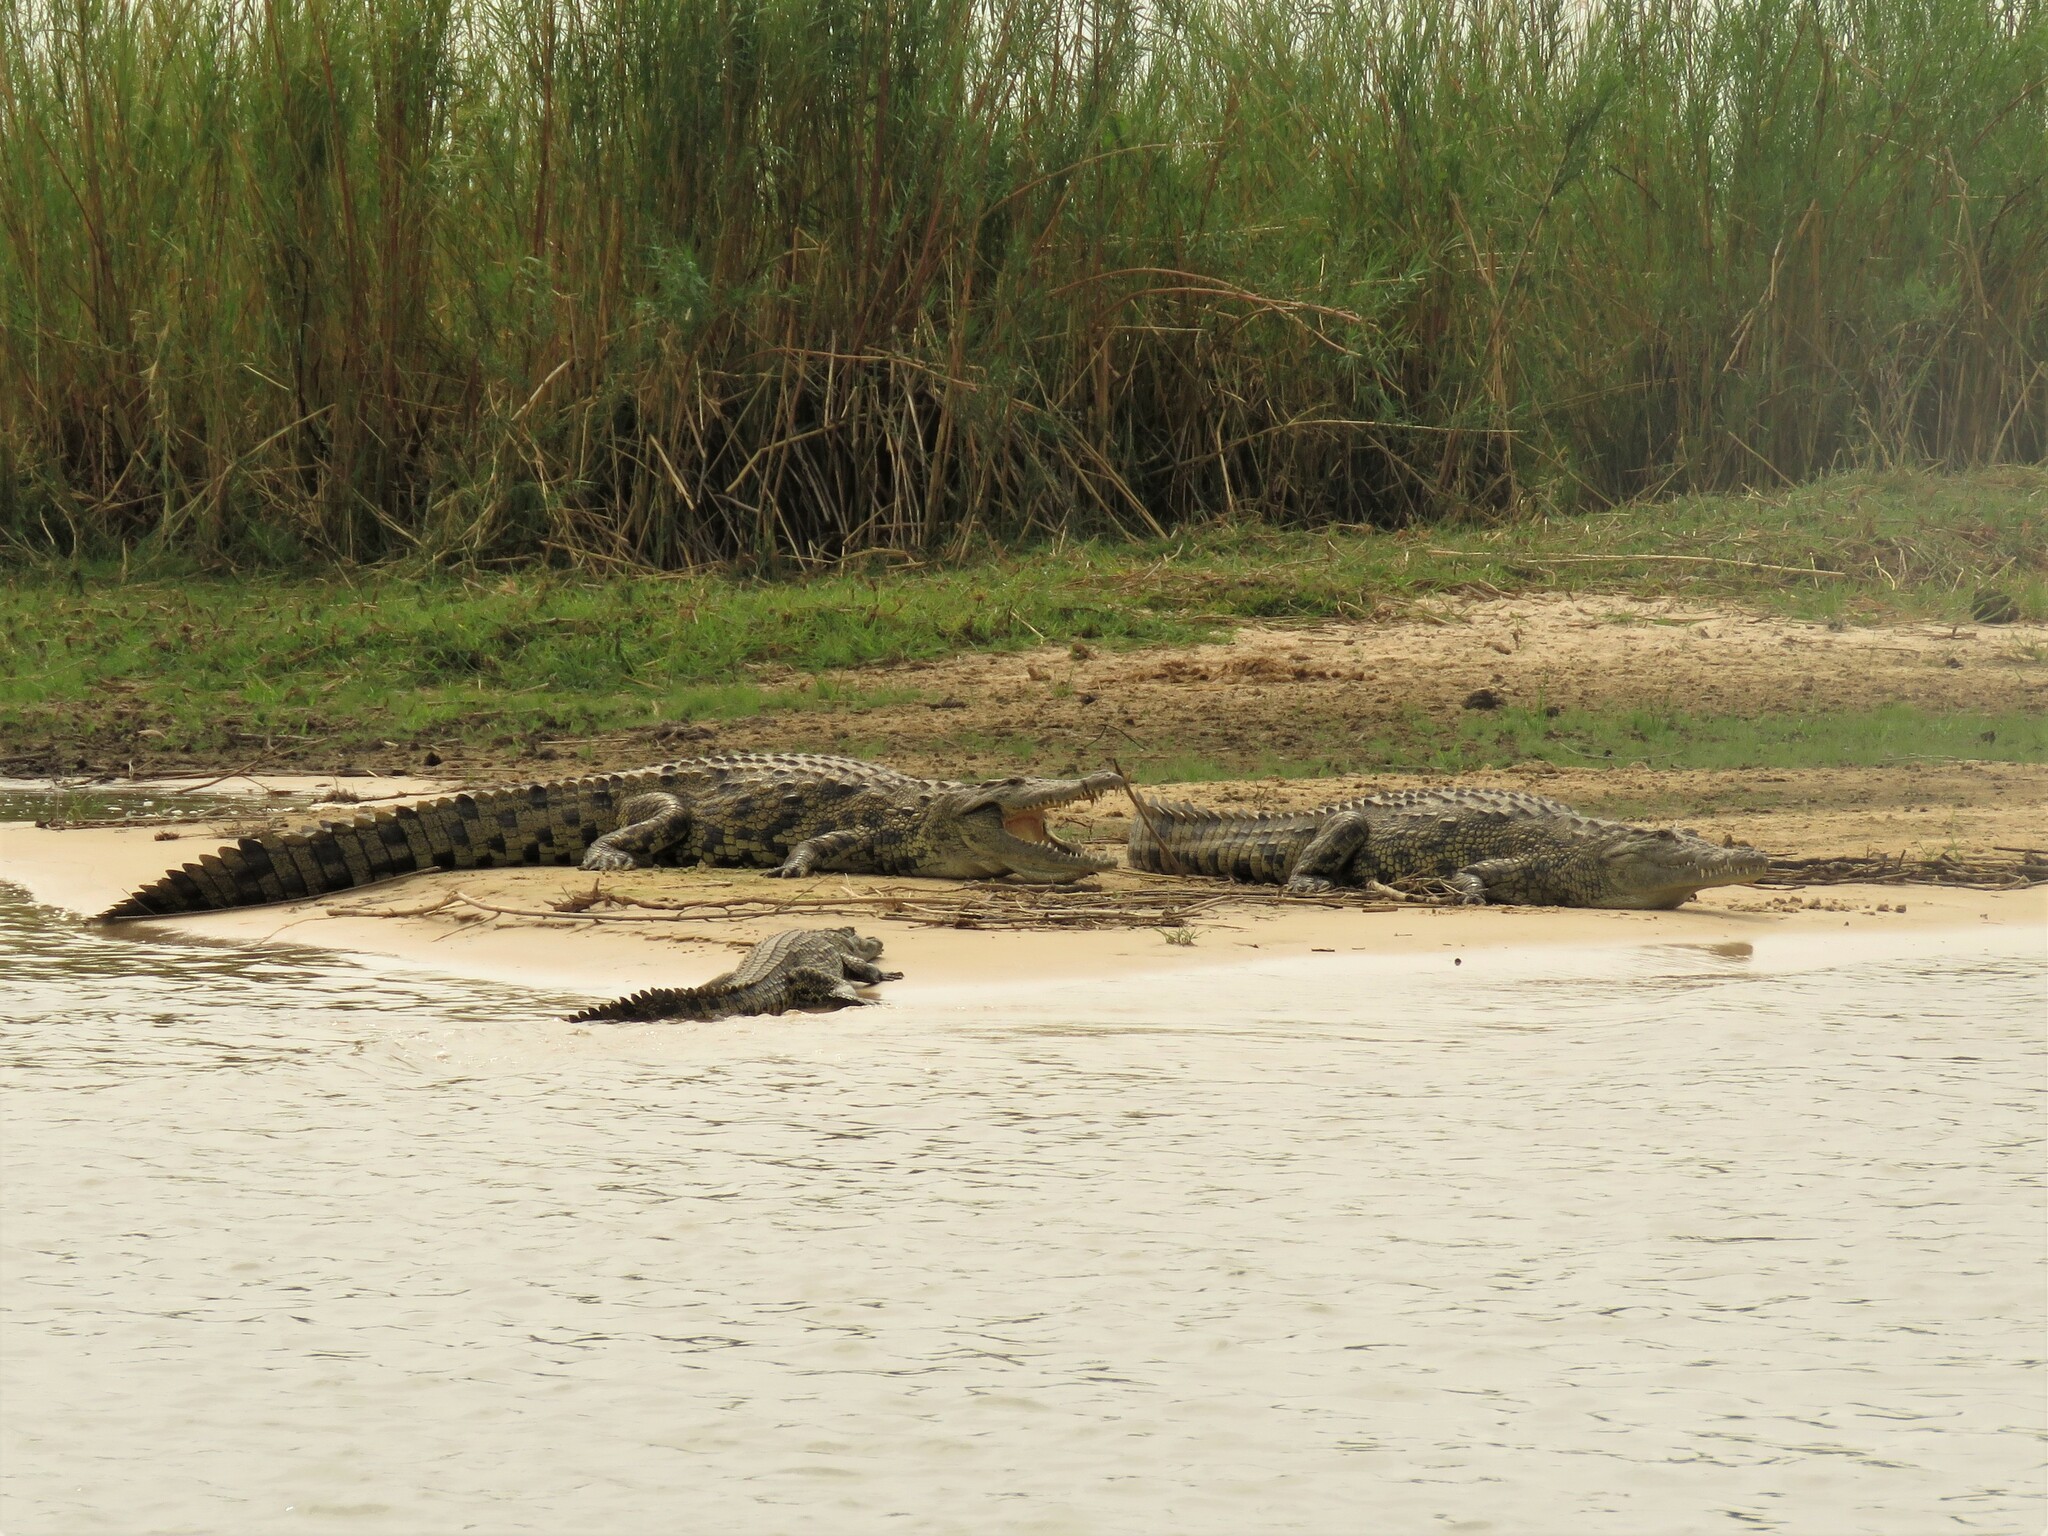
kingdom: Animalia
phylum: Chordata
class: Crocodylia
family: Crocodylidae
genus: Crocodylus
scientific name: Crocodylus niloticus
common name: Nile crocodile
